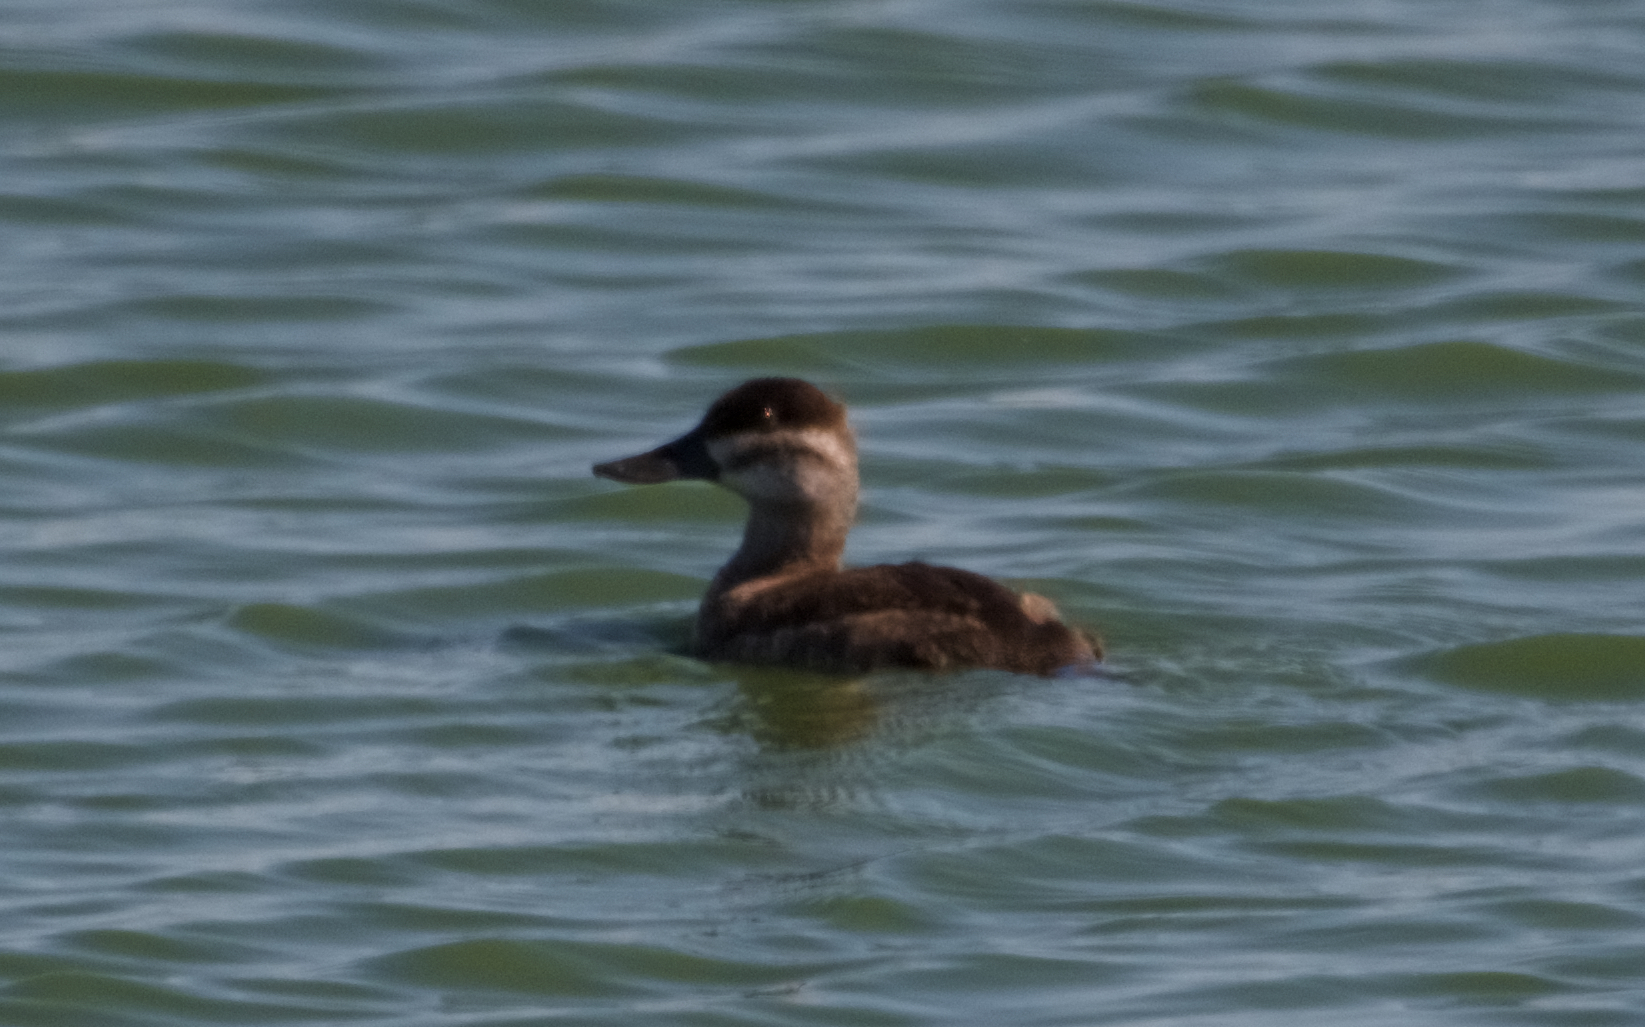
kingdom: Animalia
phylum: Chordata
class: Aves
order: Anseriformes
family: Anatidae
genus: Oxyura
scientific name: Oxyura jamaicensis
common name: Ruddy duck
